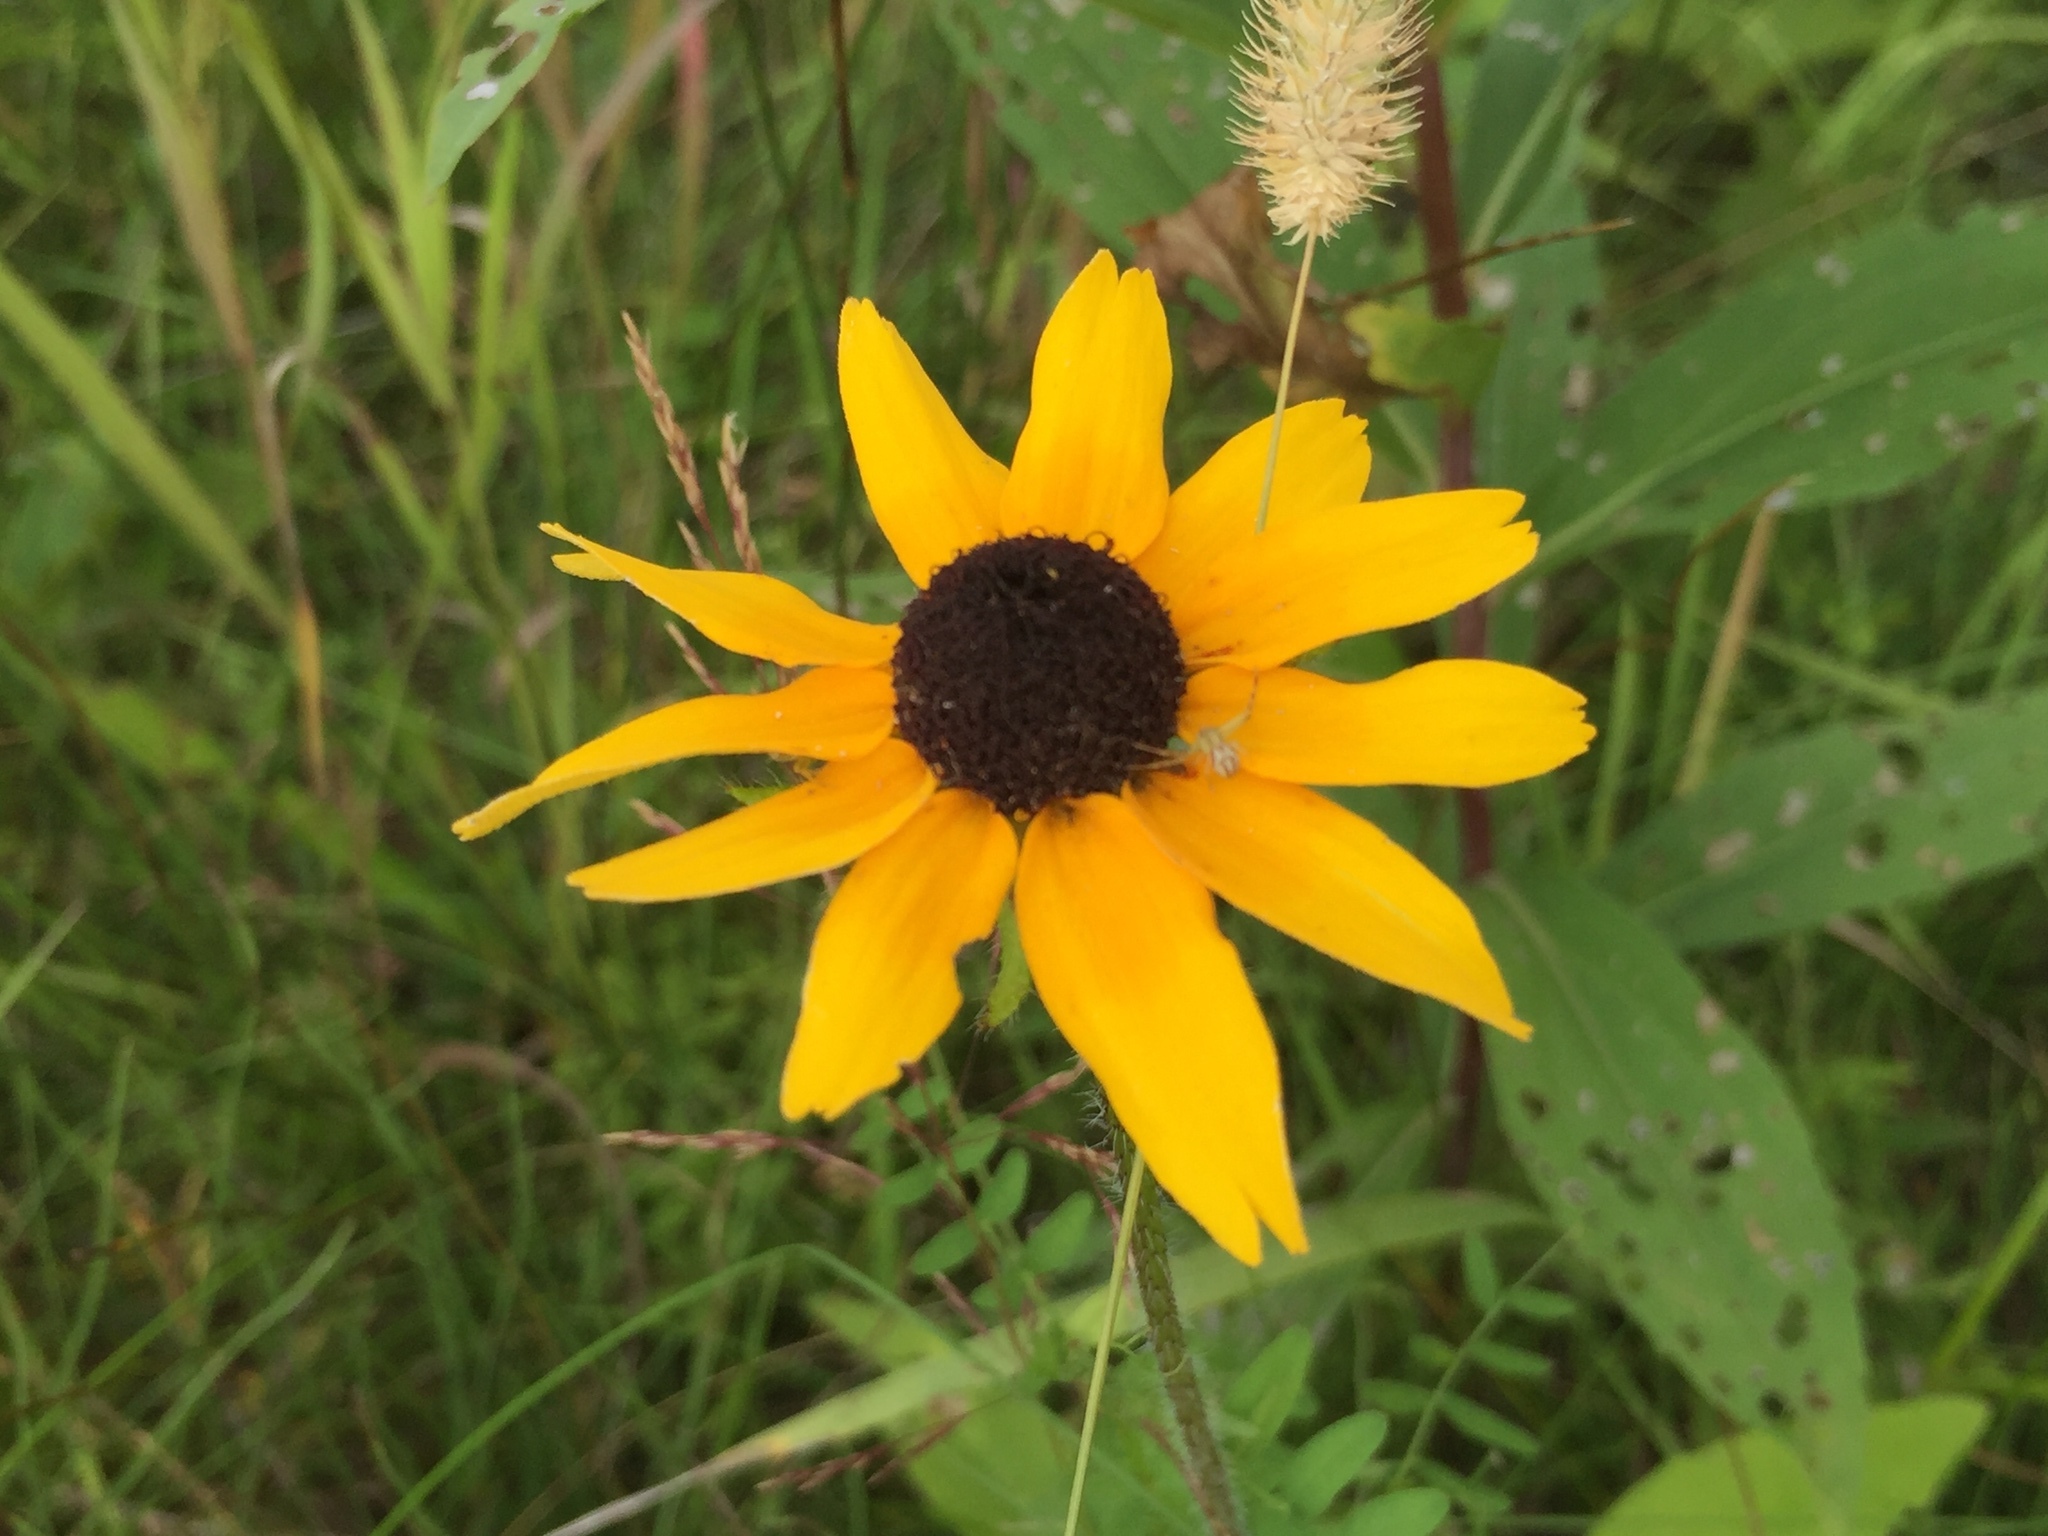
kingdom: Plantae
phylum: Tracheophyta
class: Magnoliopsida
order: Asterales
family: Asteraceae
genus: Rudbeckia
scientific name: Rudbeckia hirta
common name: Black-eyed-susan
